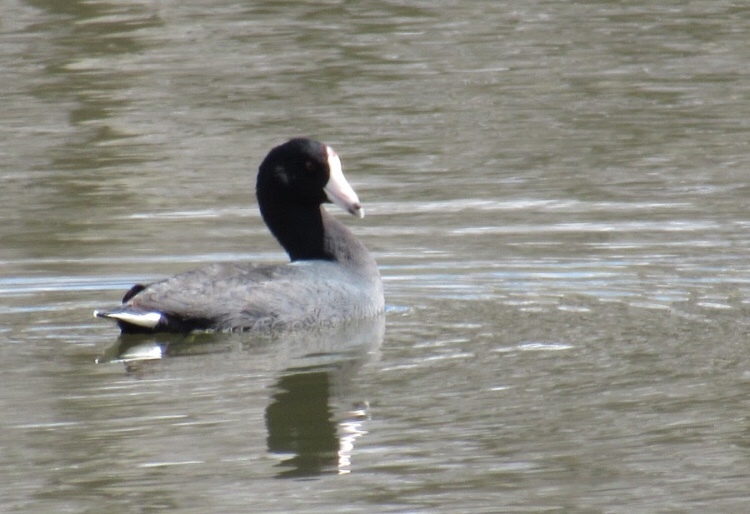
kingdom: Animalia
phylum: Chordata
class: Aves
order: Gruiformes
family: Rallidae
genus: Fulica
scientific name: Fulica americana
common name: American coot
